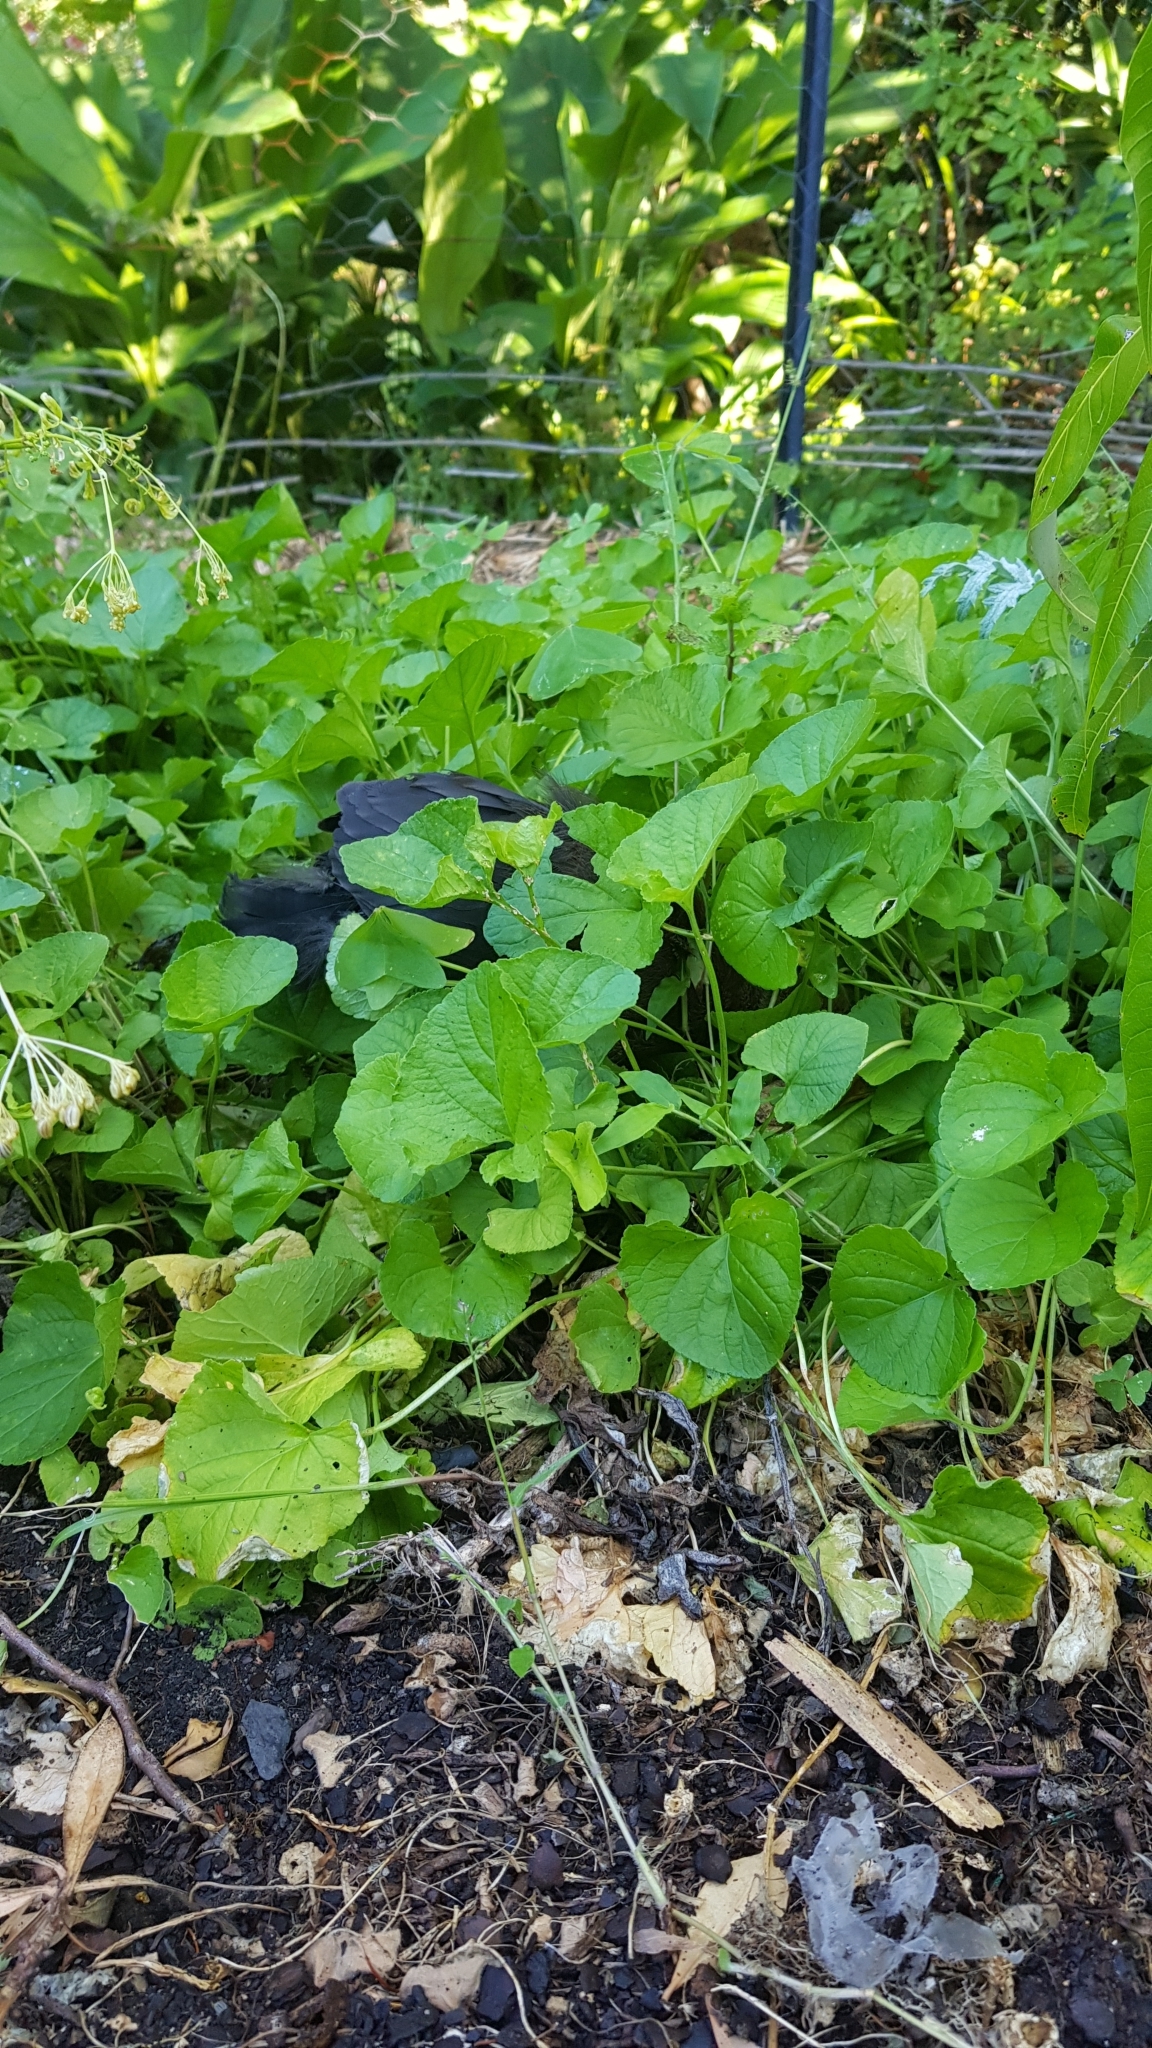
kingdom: Animalia
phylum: Chordata
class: Aves
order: Galliformes
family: Megapodiidae
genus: Alectura
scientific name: Alectura lathami
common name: Australian brushturkey
